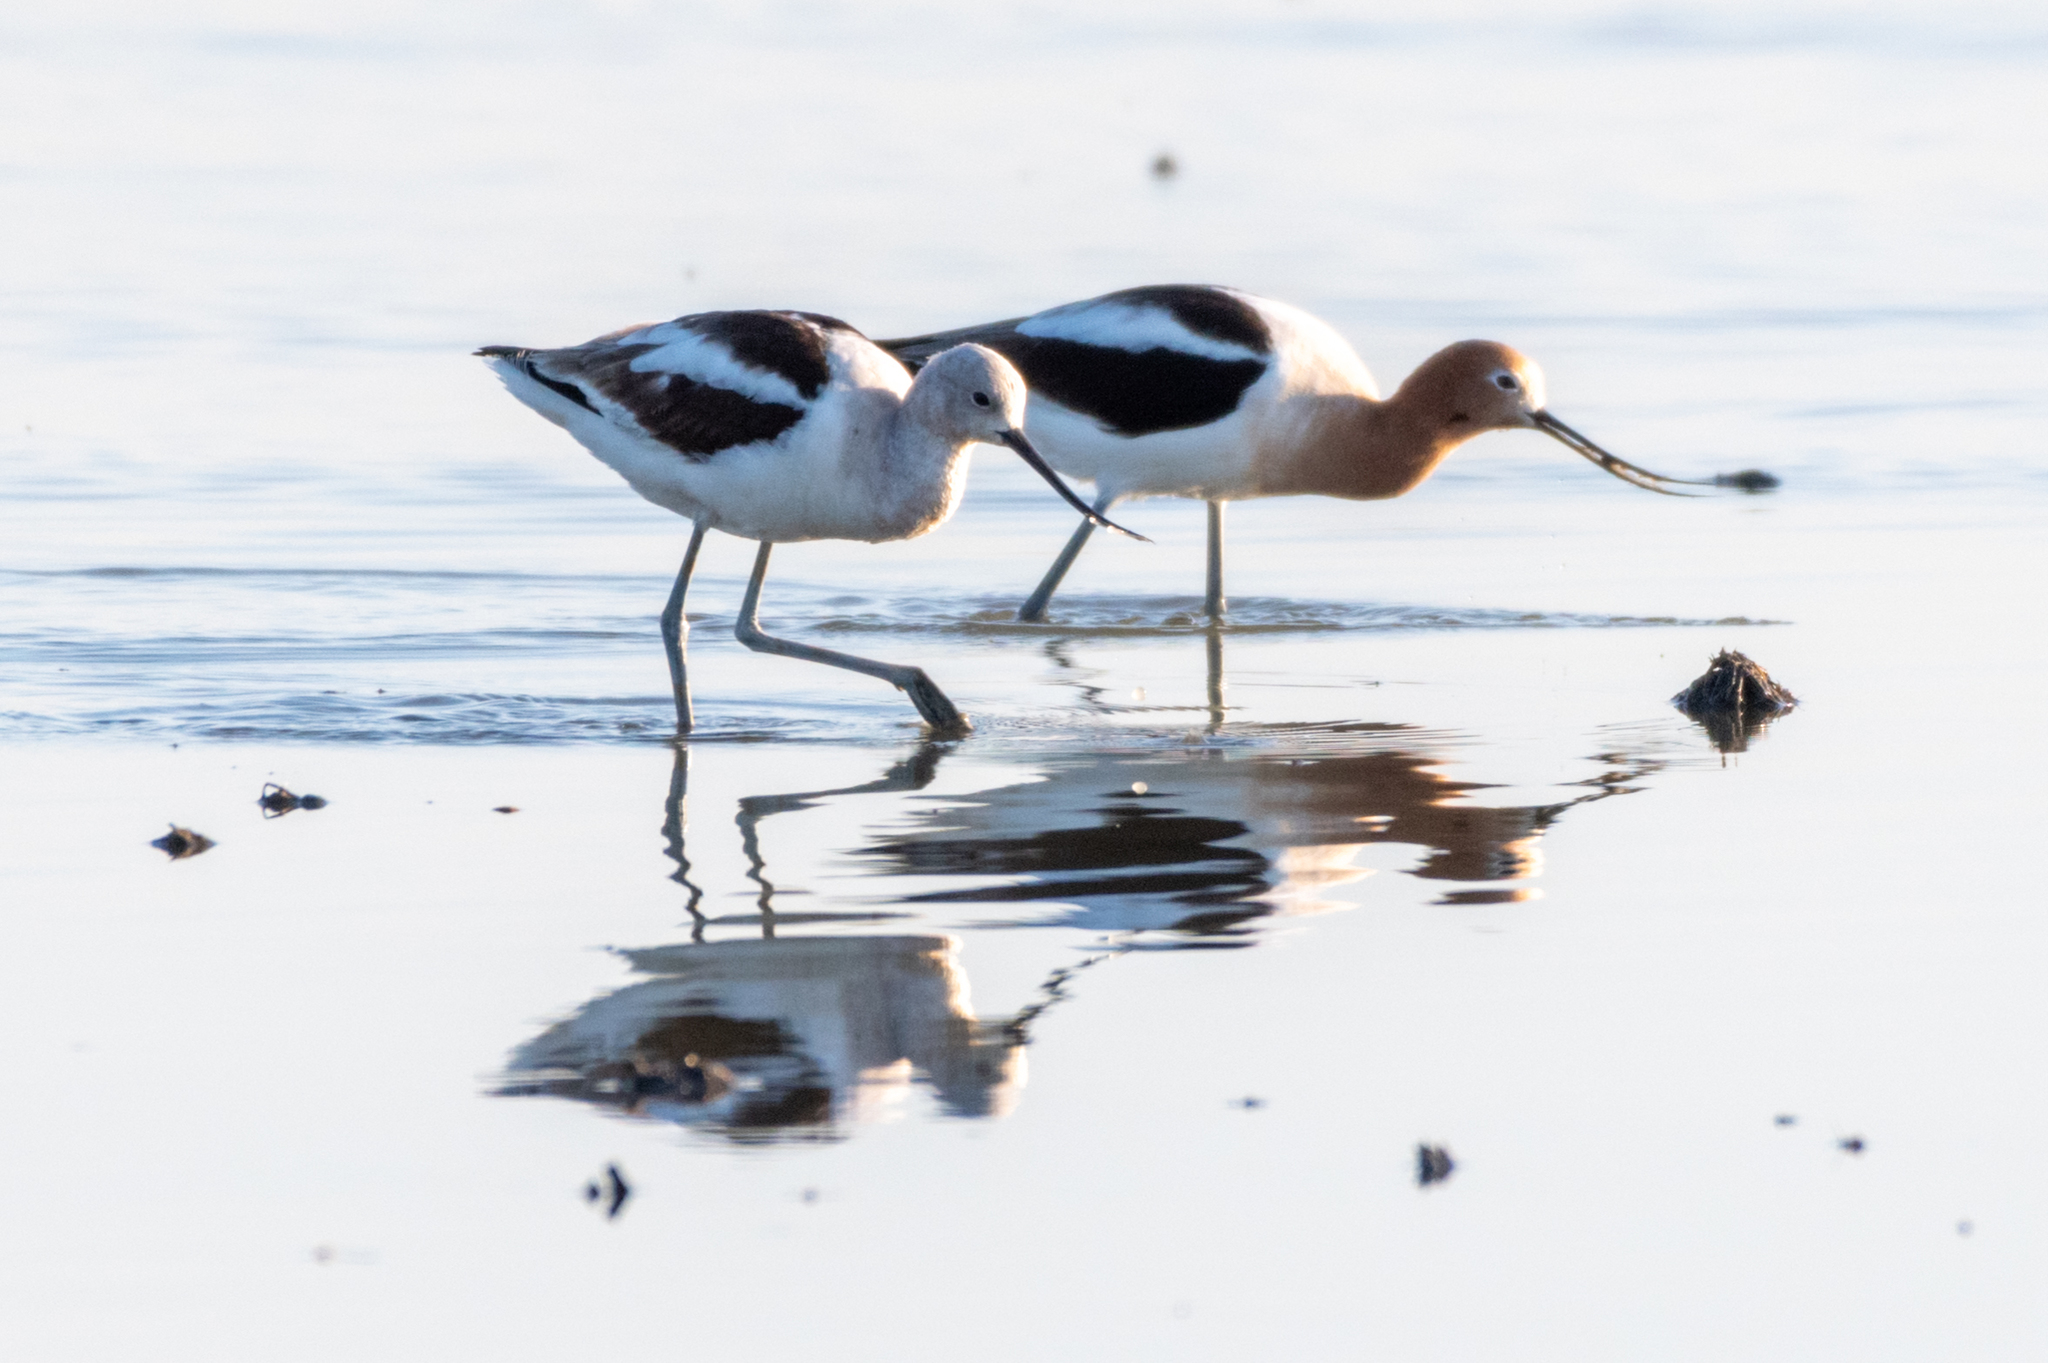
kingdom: Animalia
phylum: Chordata
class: Aves
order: Charadriiformes
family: Recurvirostridae
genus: Recurvirostra
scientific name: Recurvirostra americana
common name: American avocet
